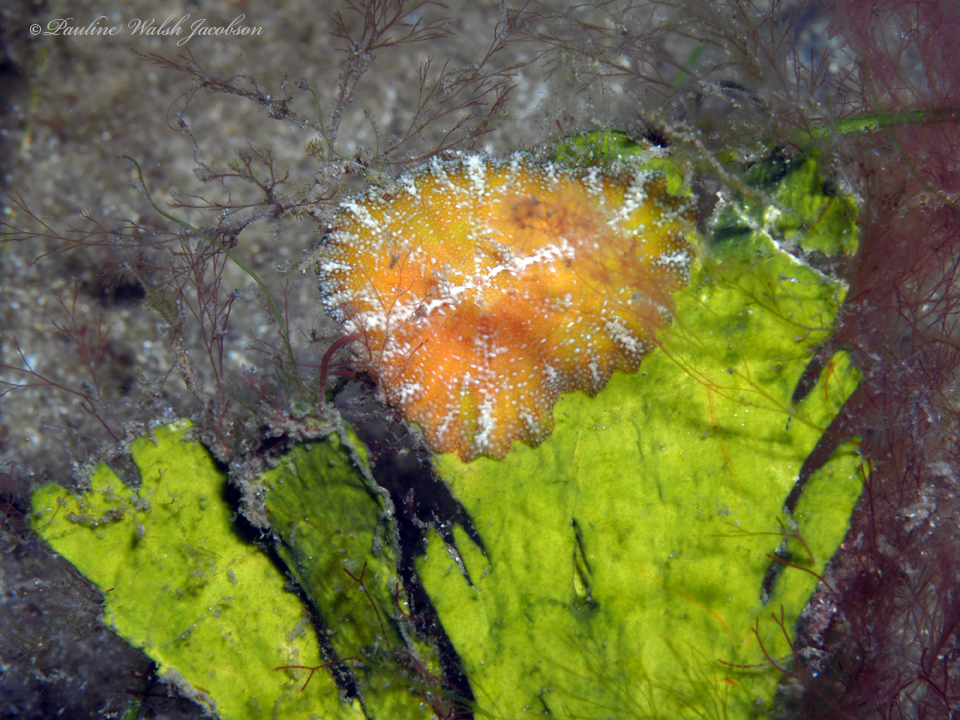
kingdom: Animalia
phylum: Cnidaria
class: Anthozoa
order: Actiniaria
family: Boloceroididae
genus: Bunodeopsis
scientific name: Bunodeopsis globulifera
